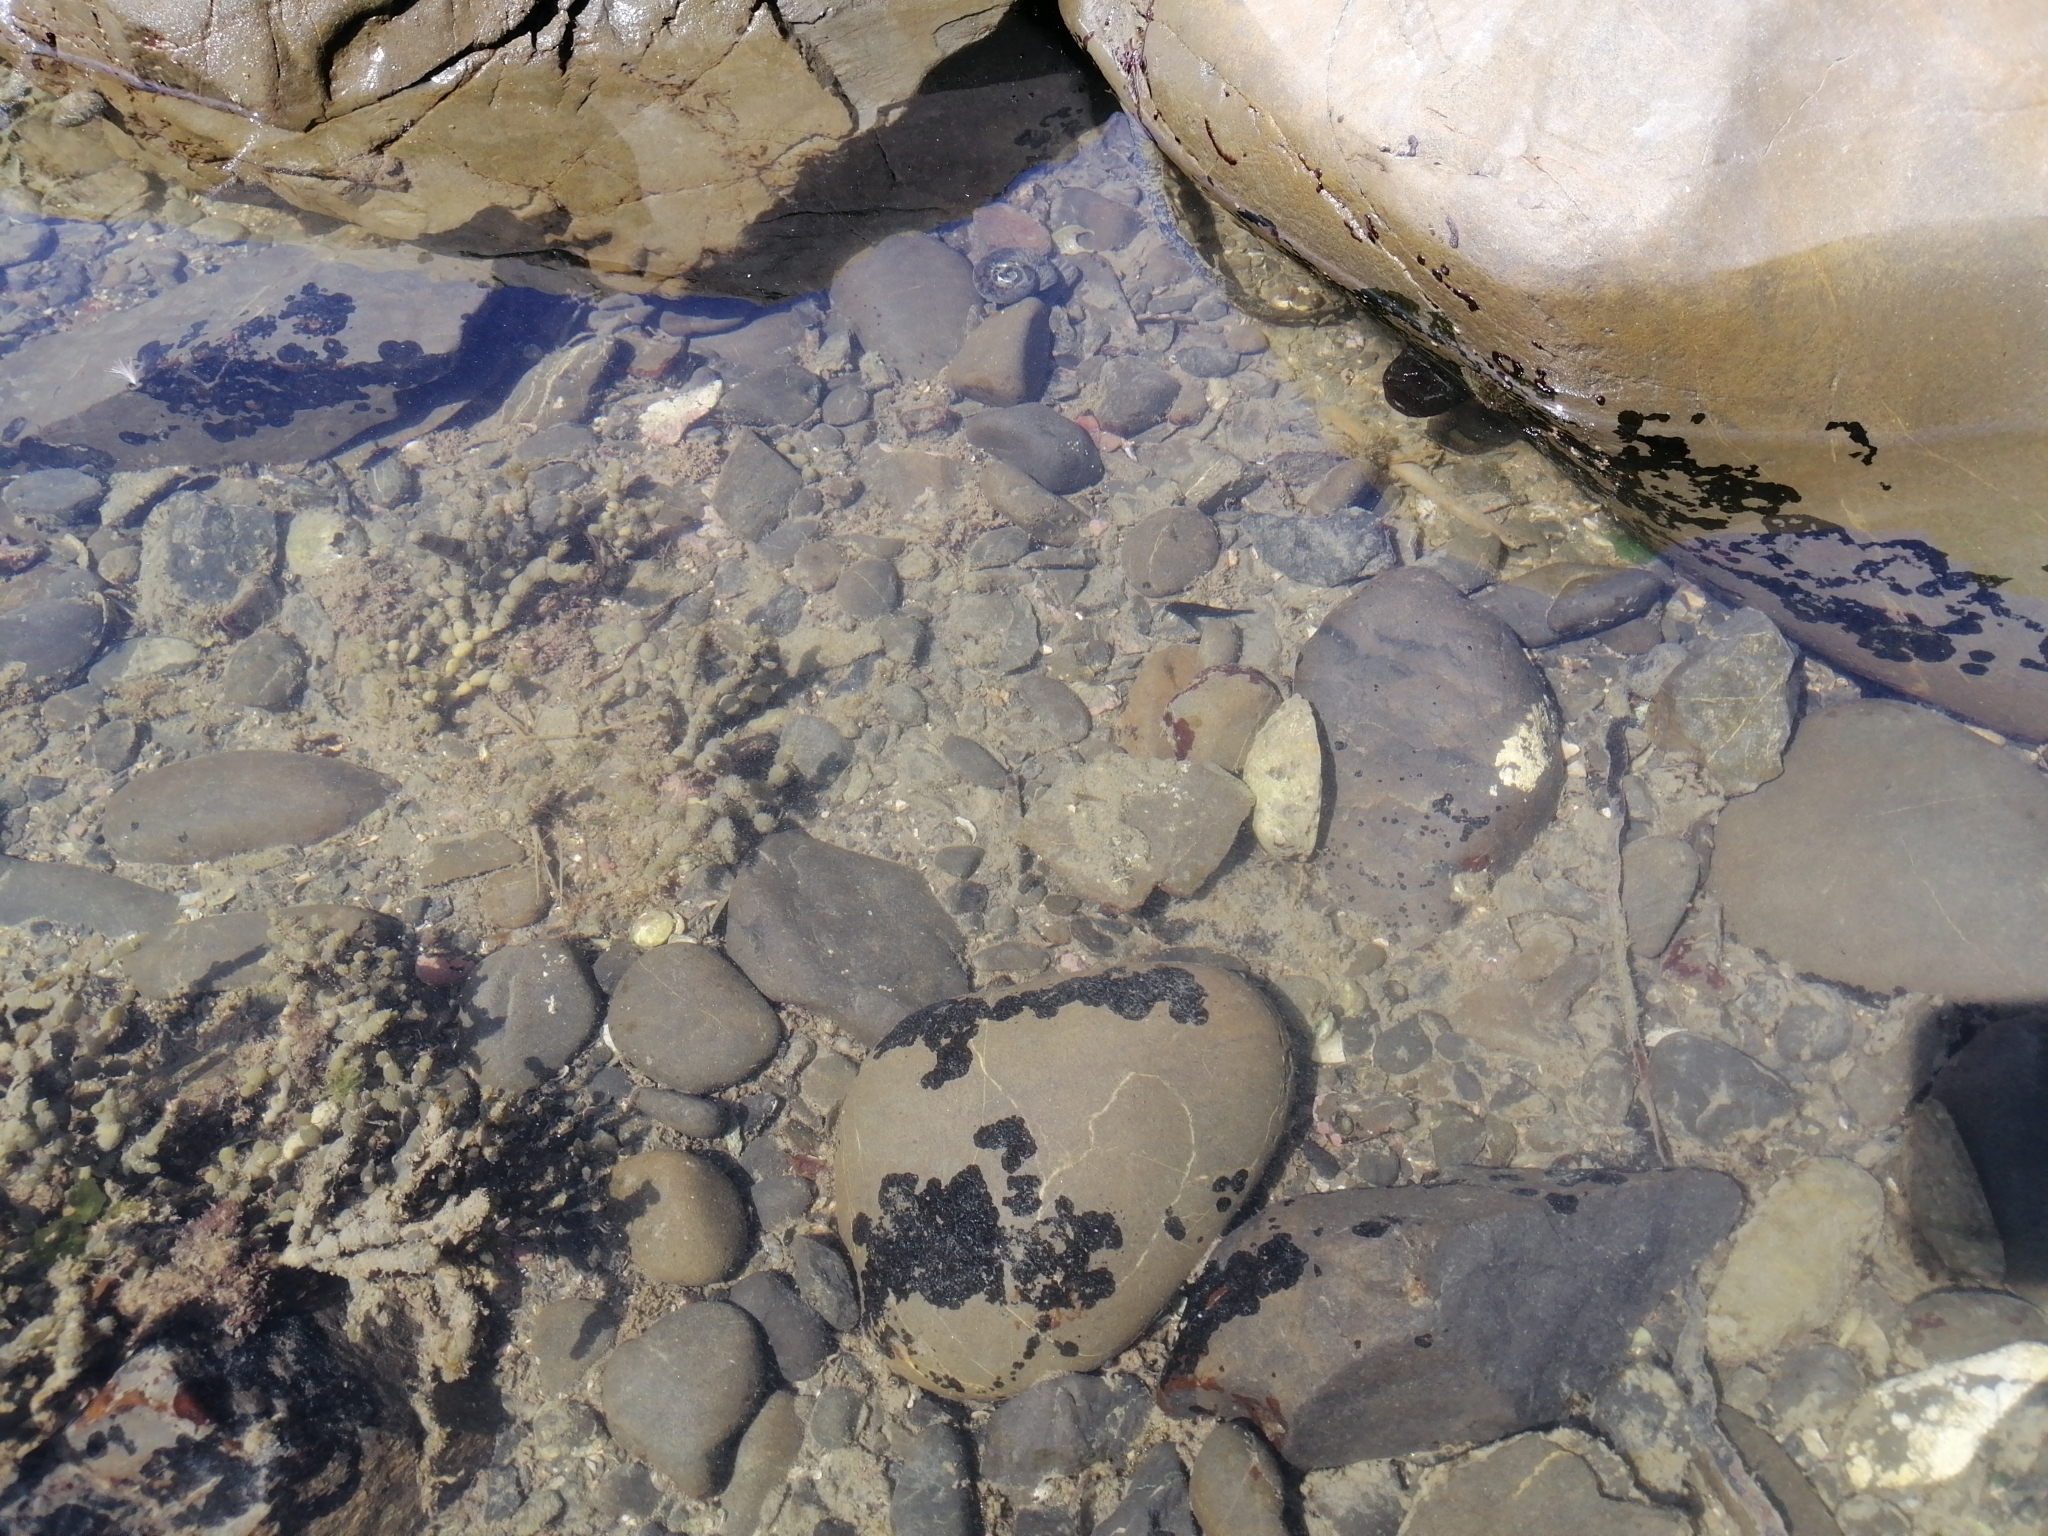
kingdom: Animalia
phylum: Chordata
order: Perciformes
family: Tripterygiidae
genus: Forsterygion
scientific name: Forsterygion lapillum
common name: Common triplefin
